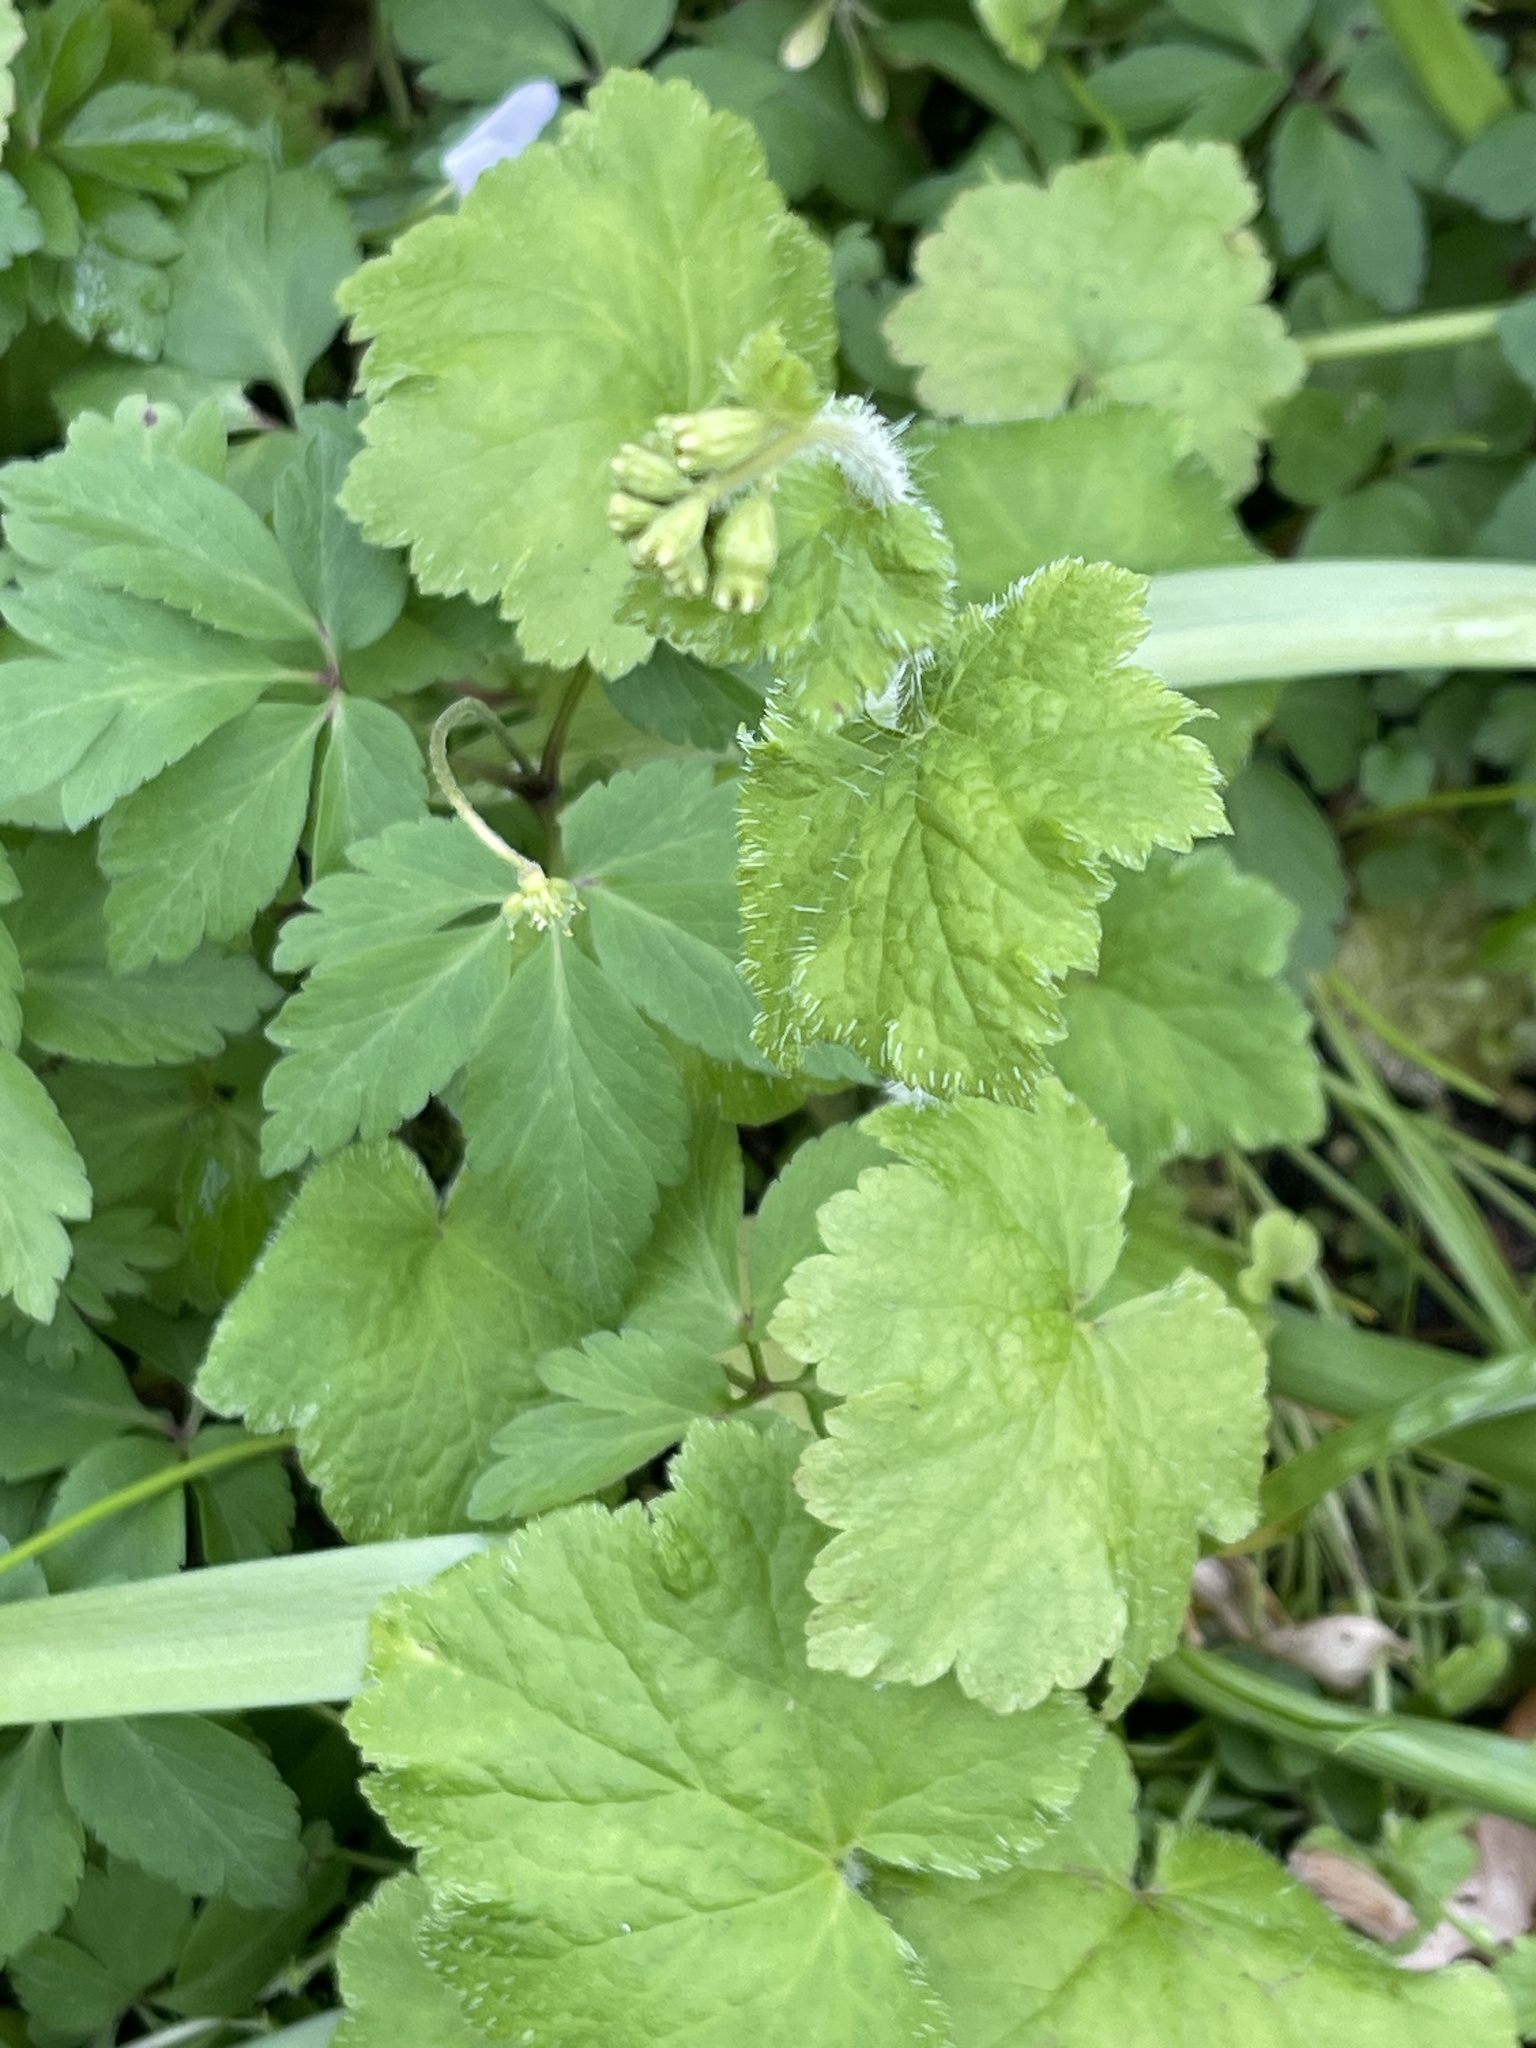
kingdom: Plantae
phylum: Tracheophyta
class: Magnoliopsida
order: Saxifragales
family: Saxifragaceae
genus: Tellima
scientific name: Tellima grandiflora
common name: Fringecups
